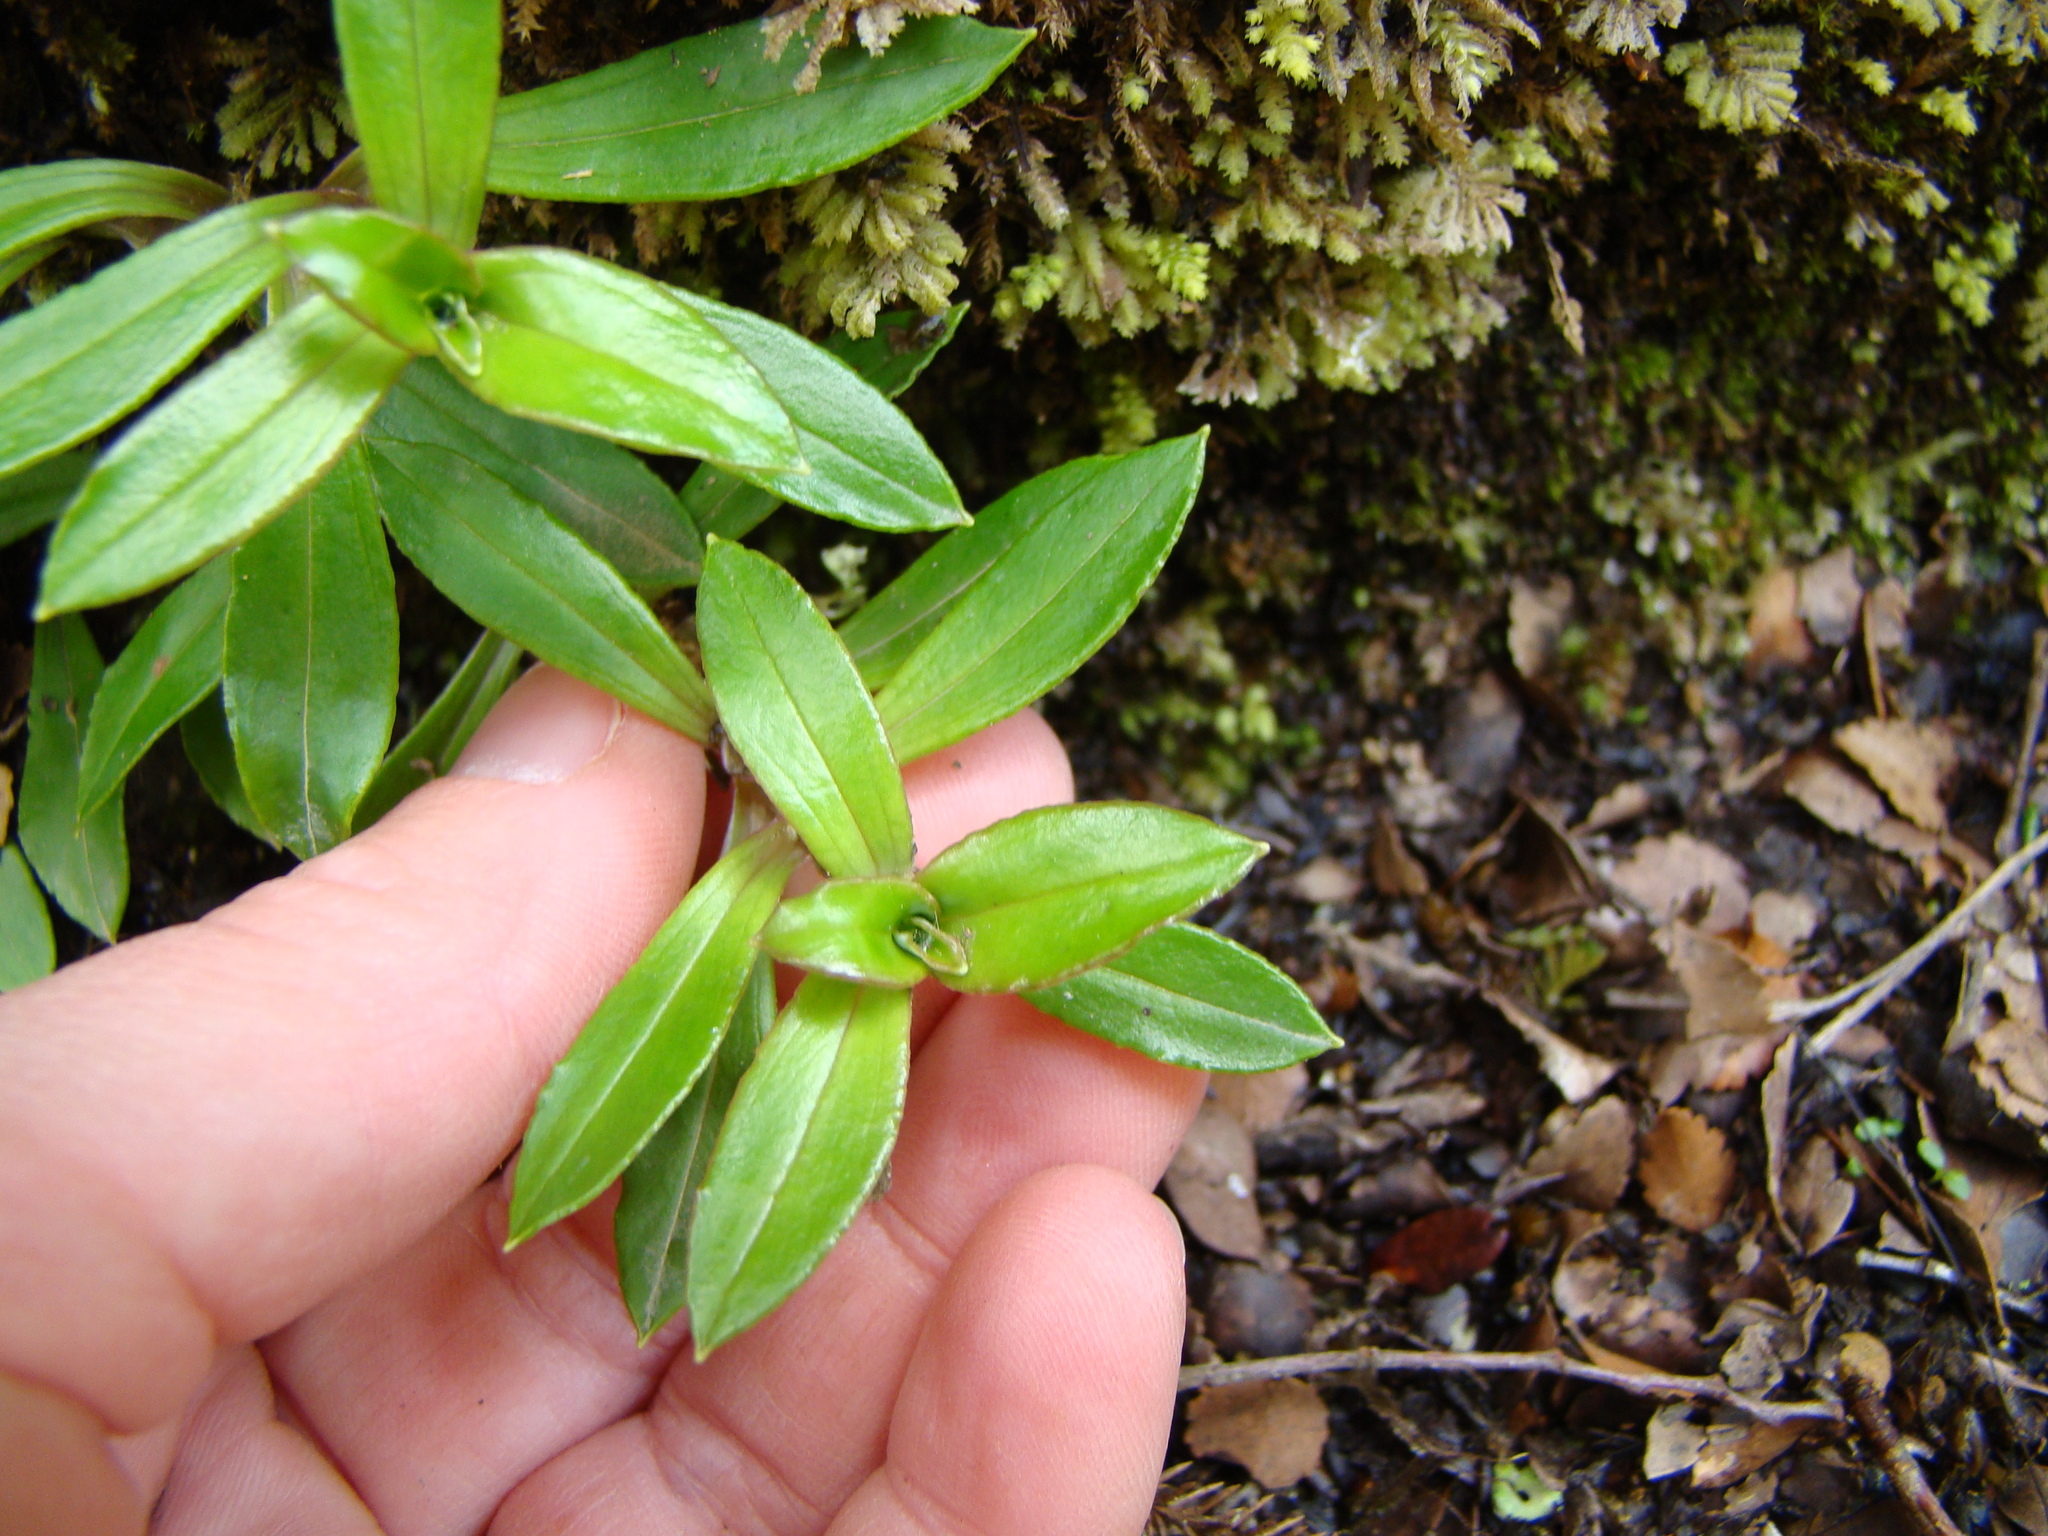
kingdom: Plantae
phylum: Tracheophyta
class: Magnoliopsida
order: Asterales
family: Asteraceae
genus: Anaphalioides
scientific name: Anaphalioides trinervis
